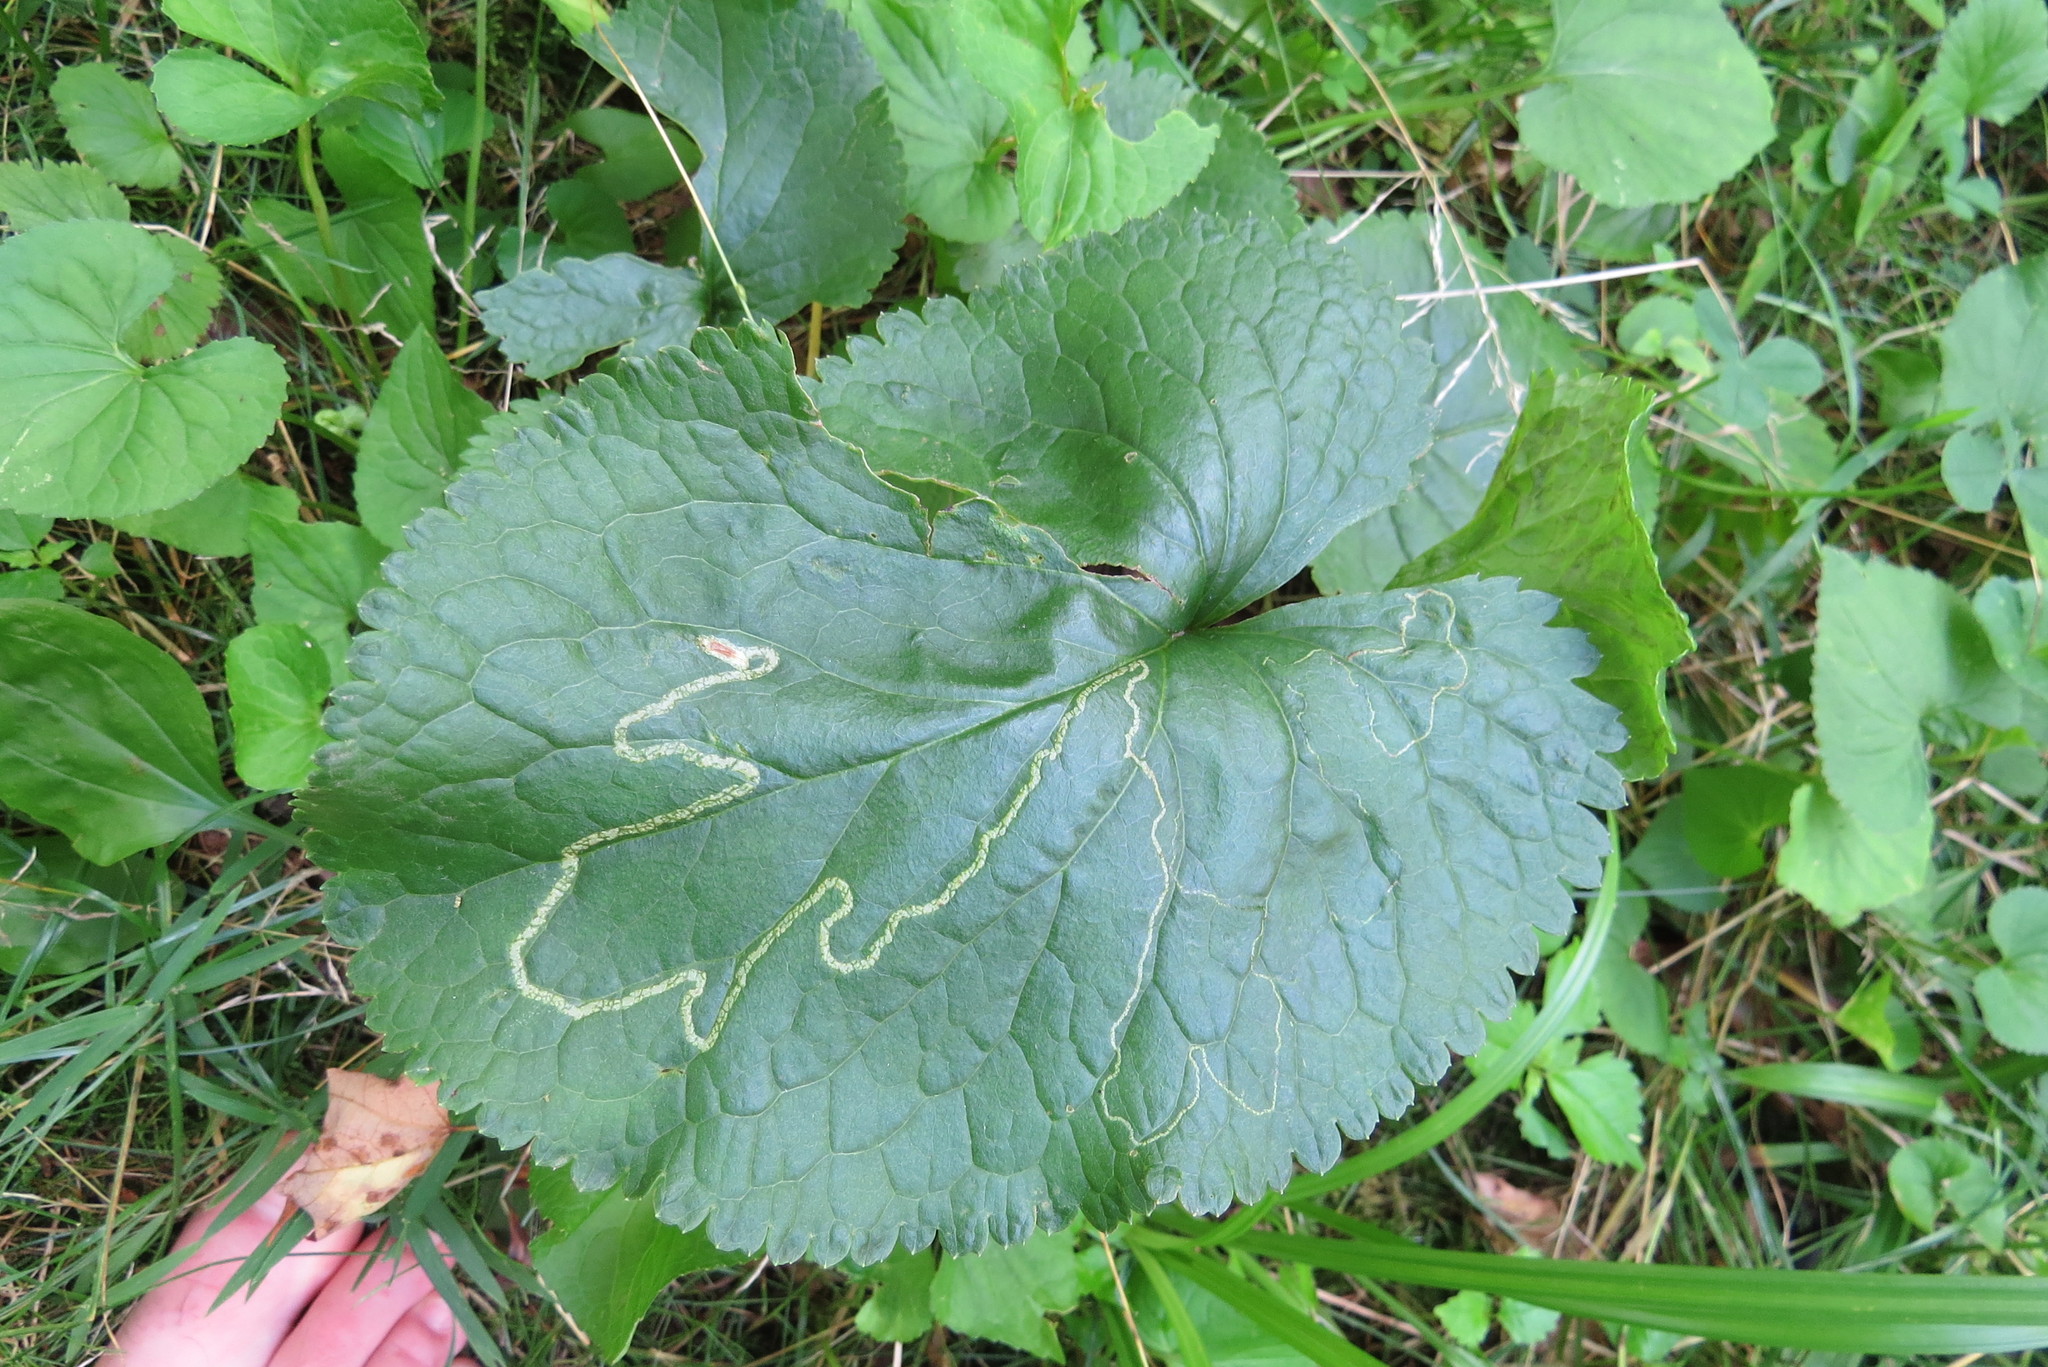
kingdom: Animalia
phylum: Arthropoda
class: Insecta
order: Lepidoptera
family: Gracillariidae
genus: Phyllocnistis
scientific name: Phyllocnistis insignis
